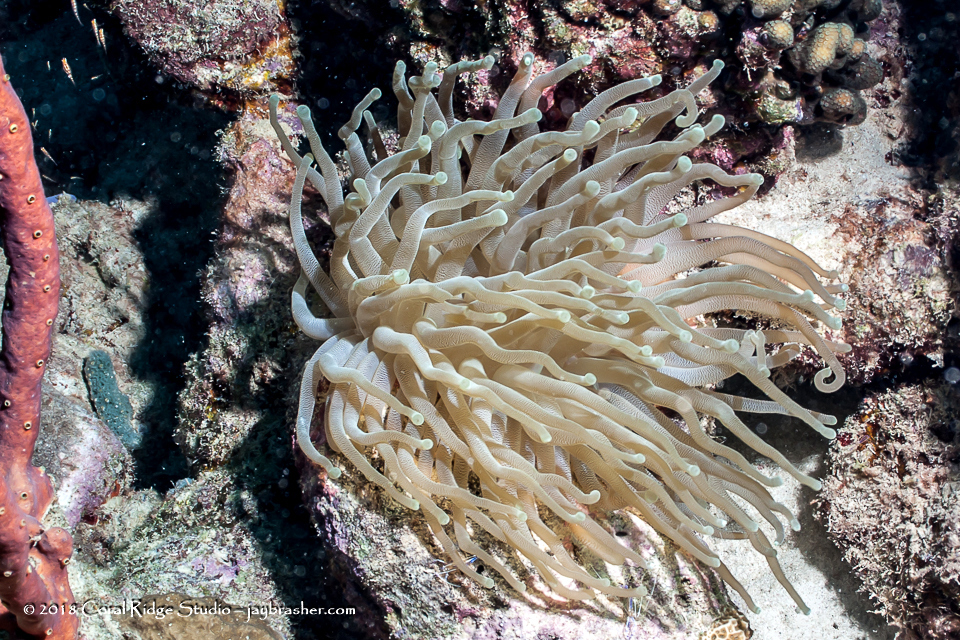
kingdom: Animalia
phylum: Cnidaria
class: Anthozoa
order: Actiniaria
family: Actiniidae
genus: Condylactis
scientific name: Condylactis gigantea
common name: Giant caribbean anemone
